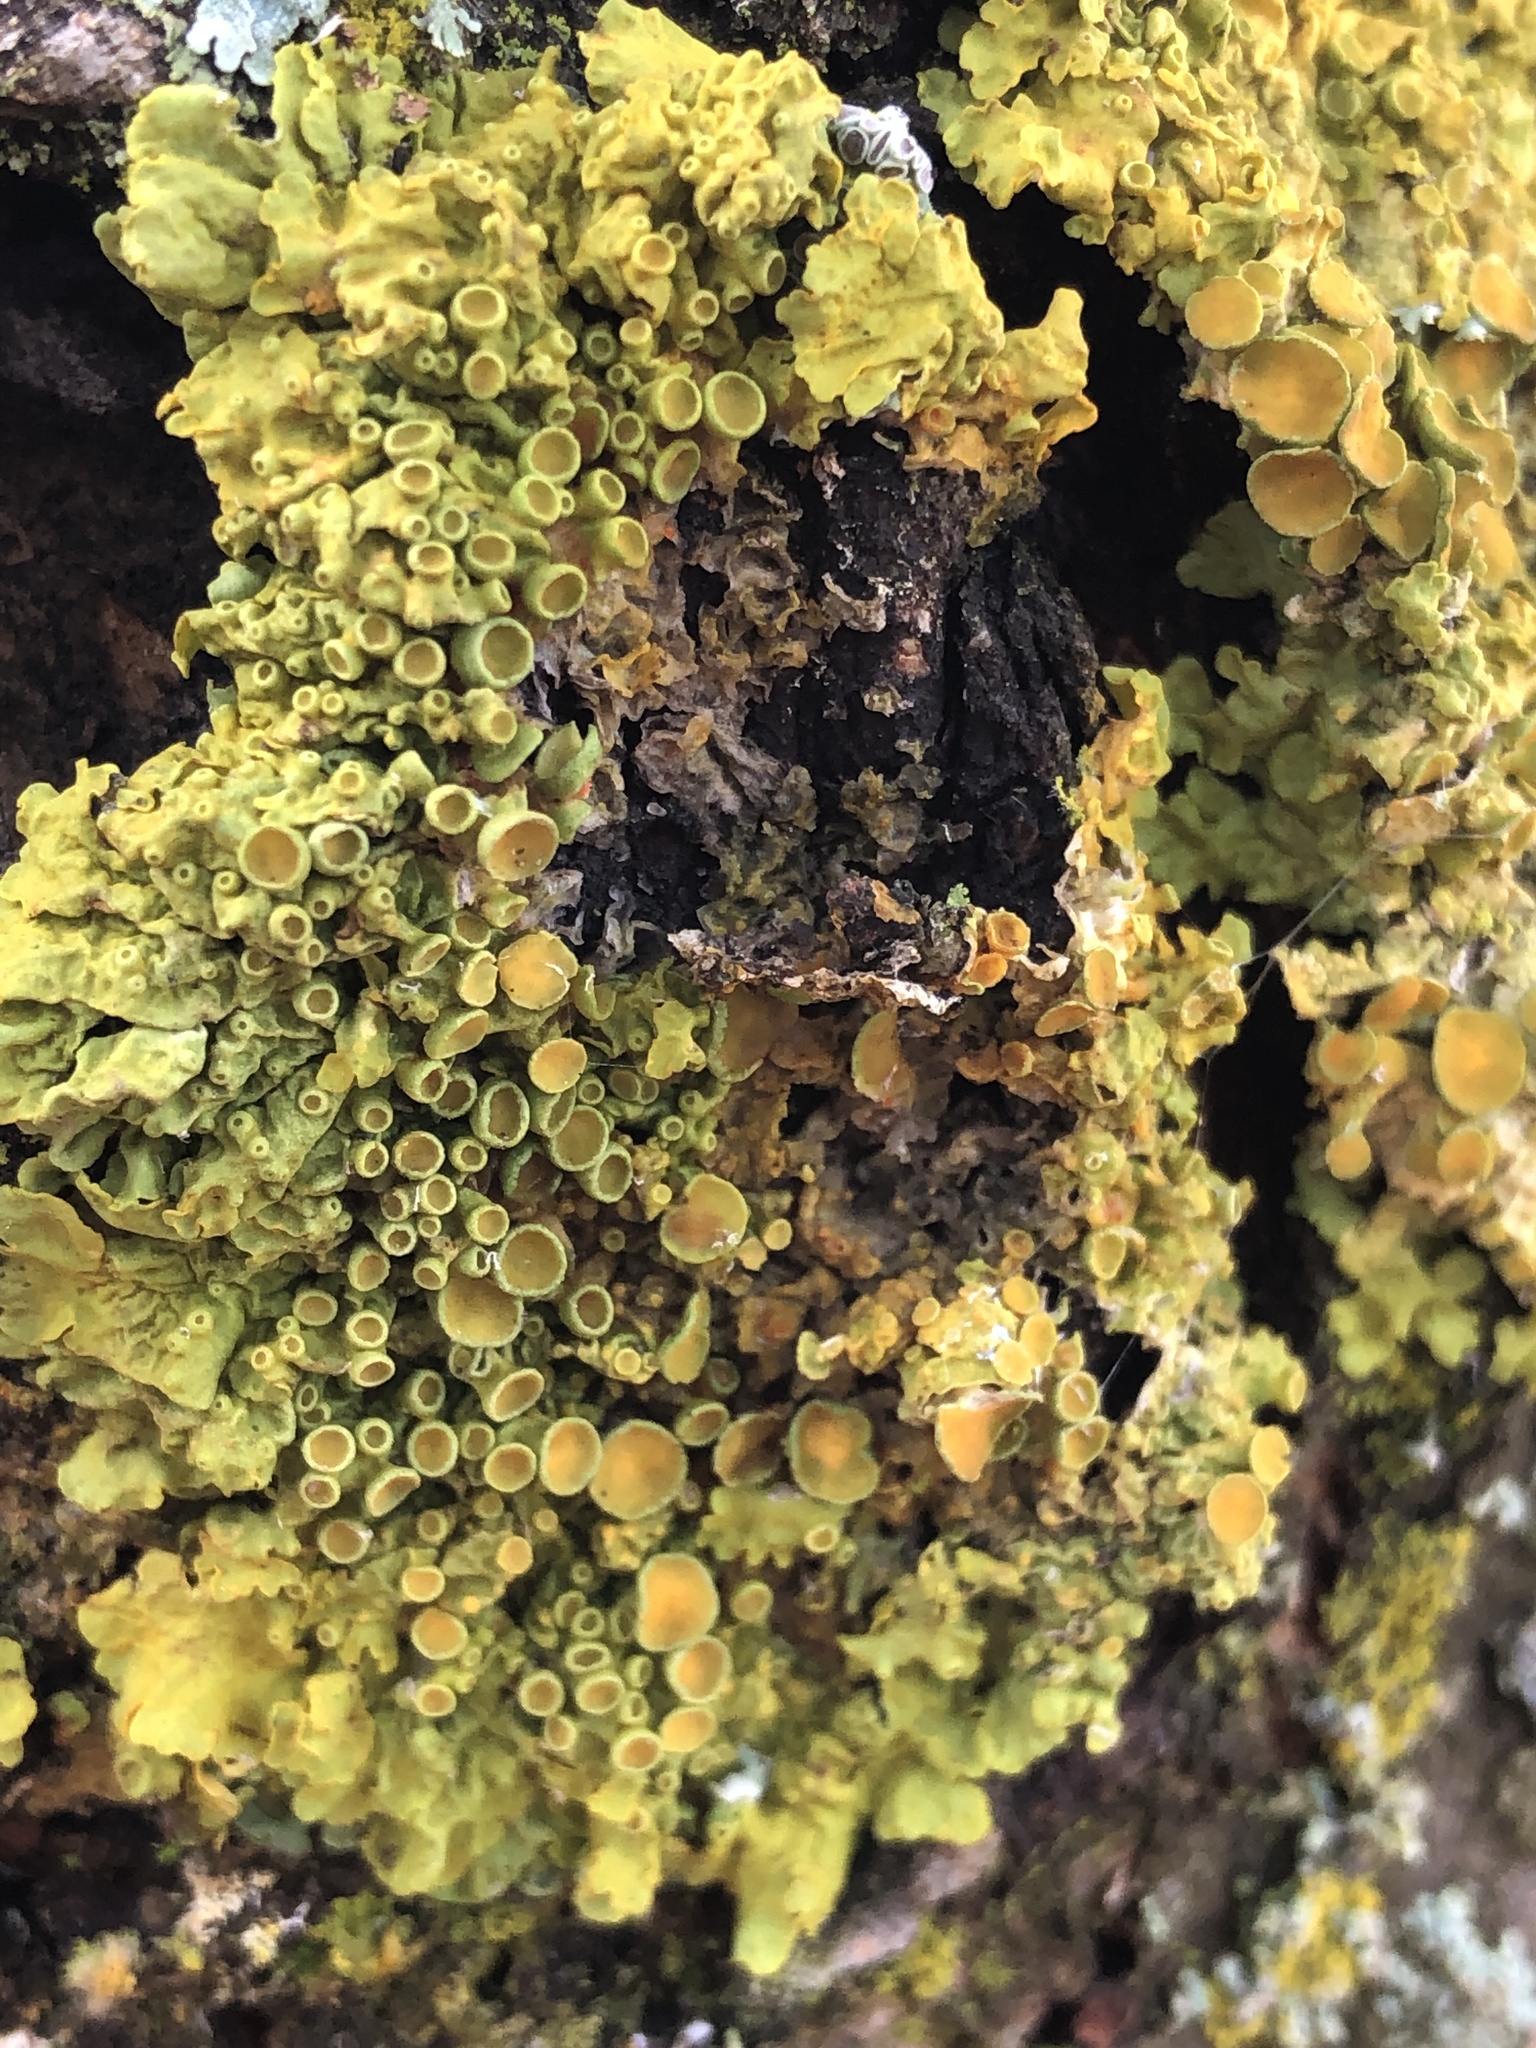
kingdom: Fungi
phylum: Ascomycota
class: Lecanoromycetes
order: Teloschistales
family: Teloschistaceae
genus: Xanthoria
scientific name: Xanthoria parietina
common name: Common orange lichen
